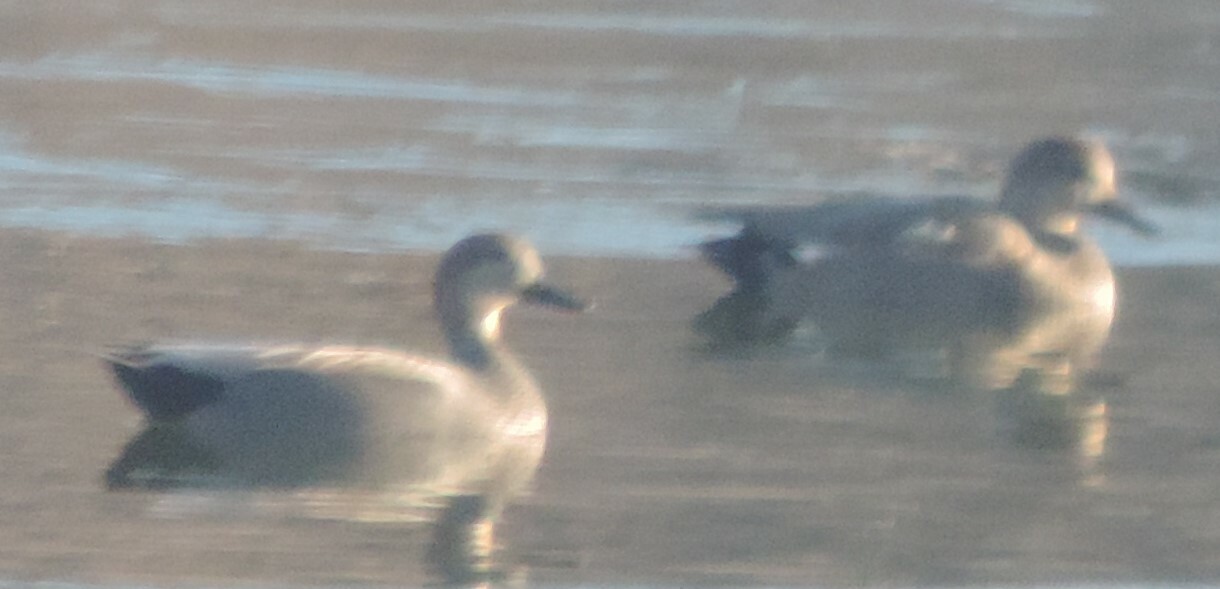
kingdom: Animalia
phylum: Chordata
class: Aves
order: Anseriformes
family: Anatidae
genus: Mareca
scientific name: Mareca strepera
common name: Gadwall
